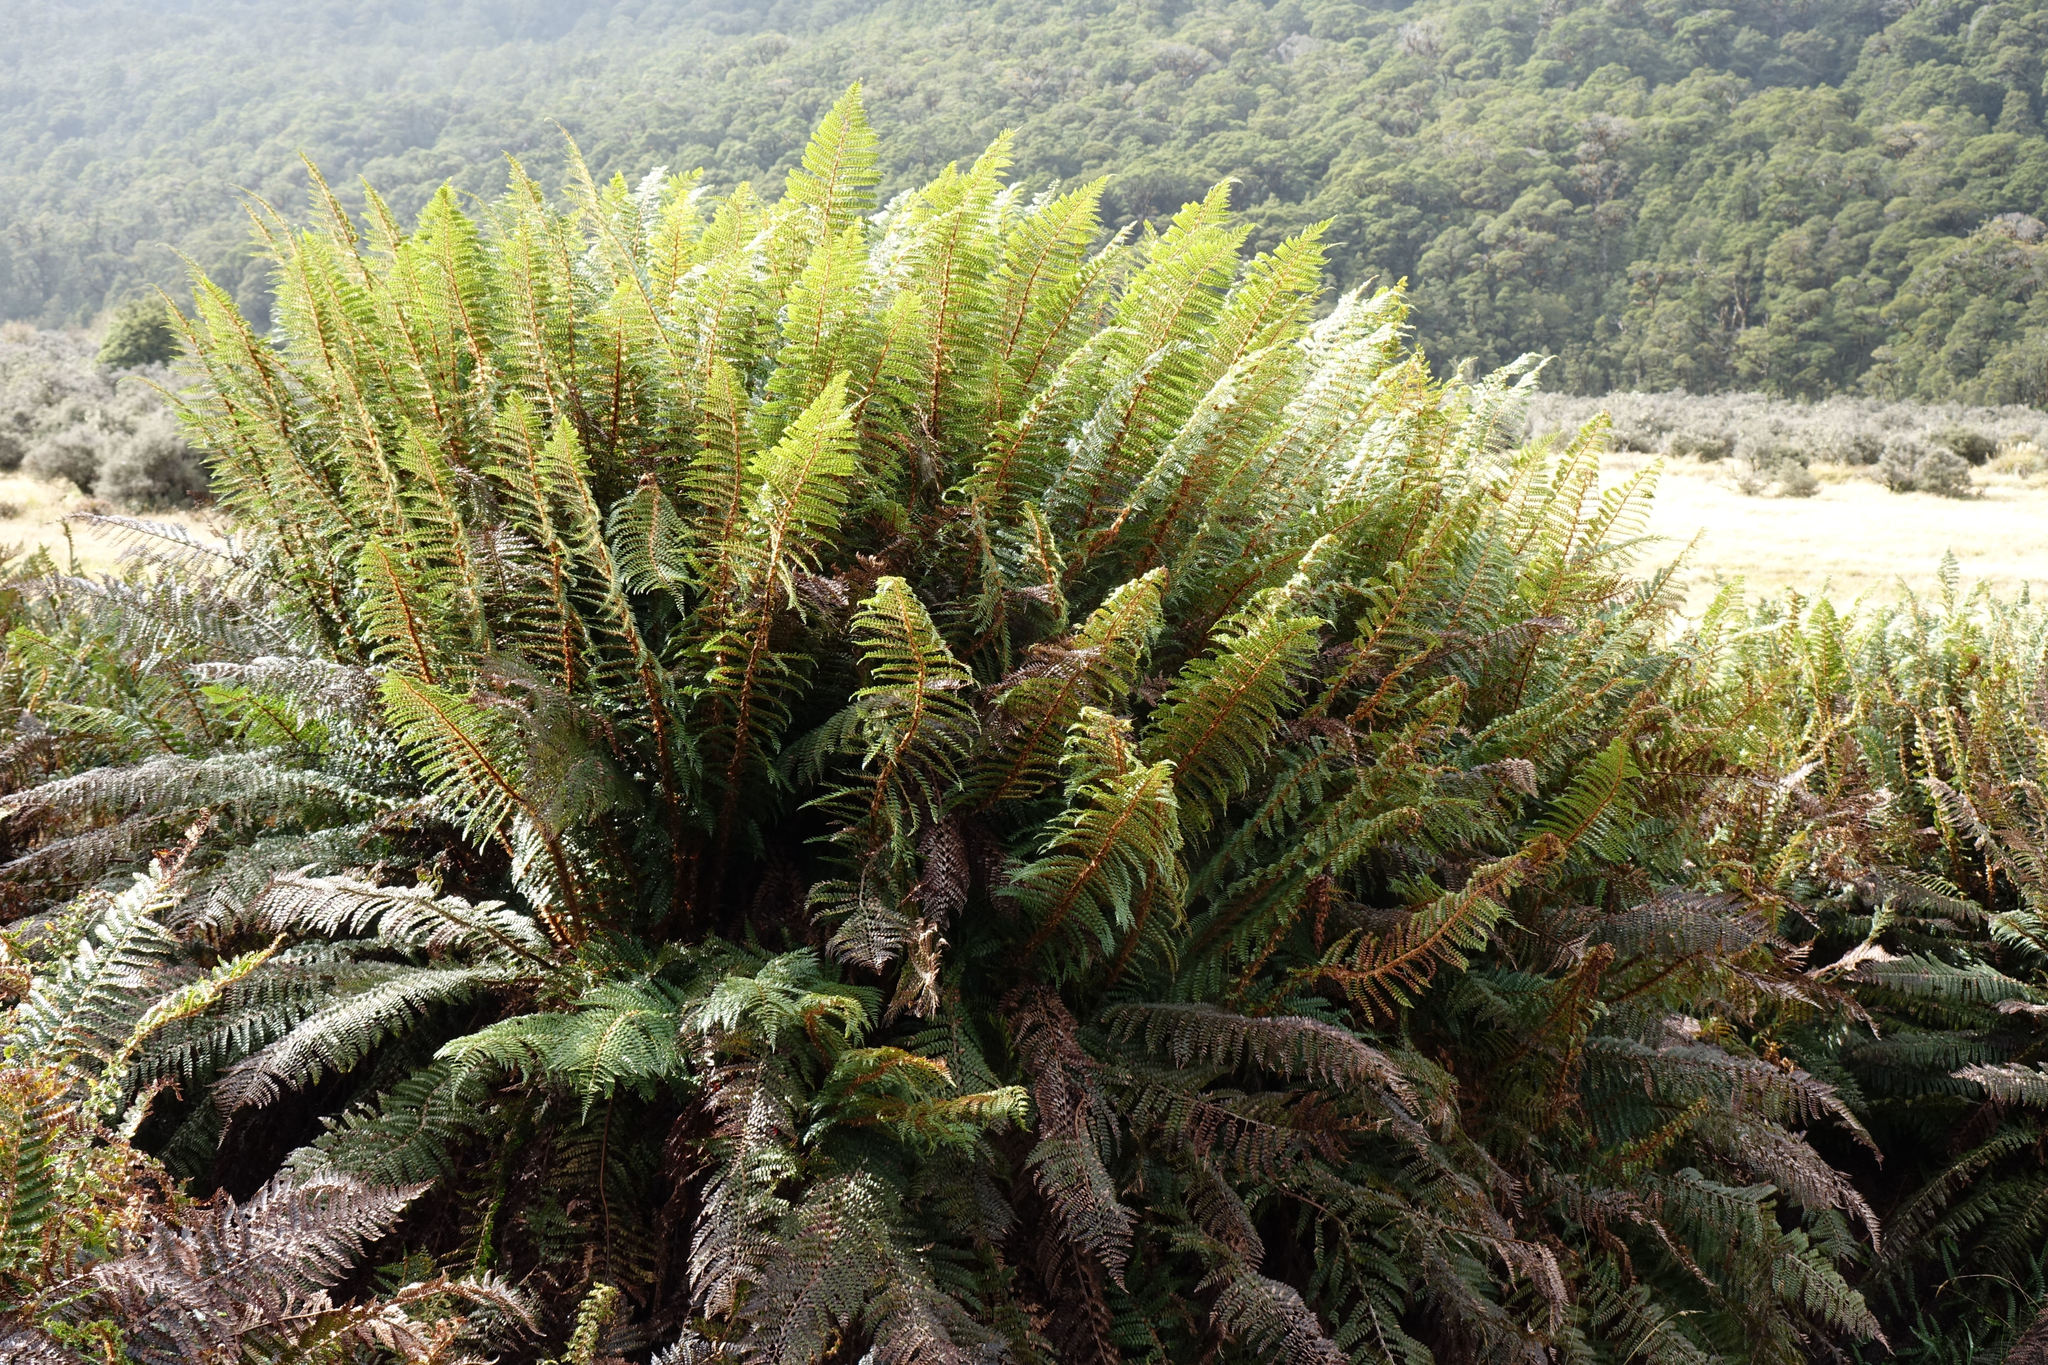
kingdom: Plantae
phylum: Tracheophyta
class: Polypodiopsida
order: Polypodiales
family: Dryopteridaceae
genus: Polystichum
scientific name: Polystichum vestitum
